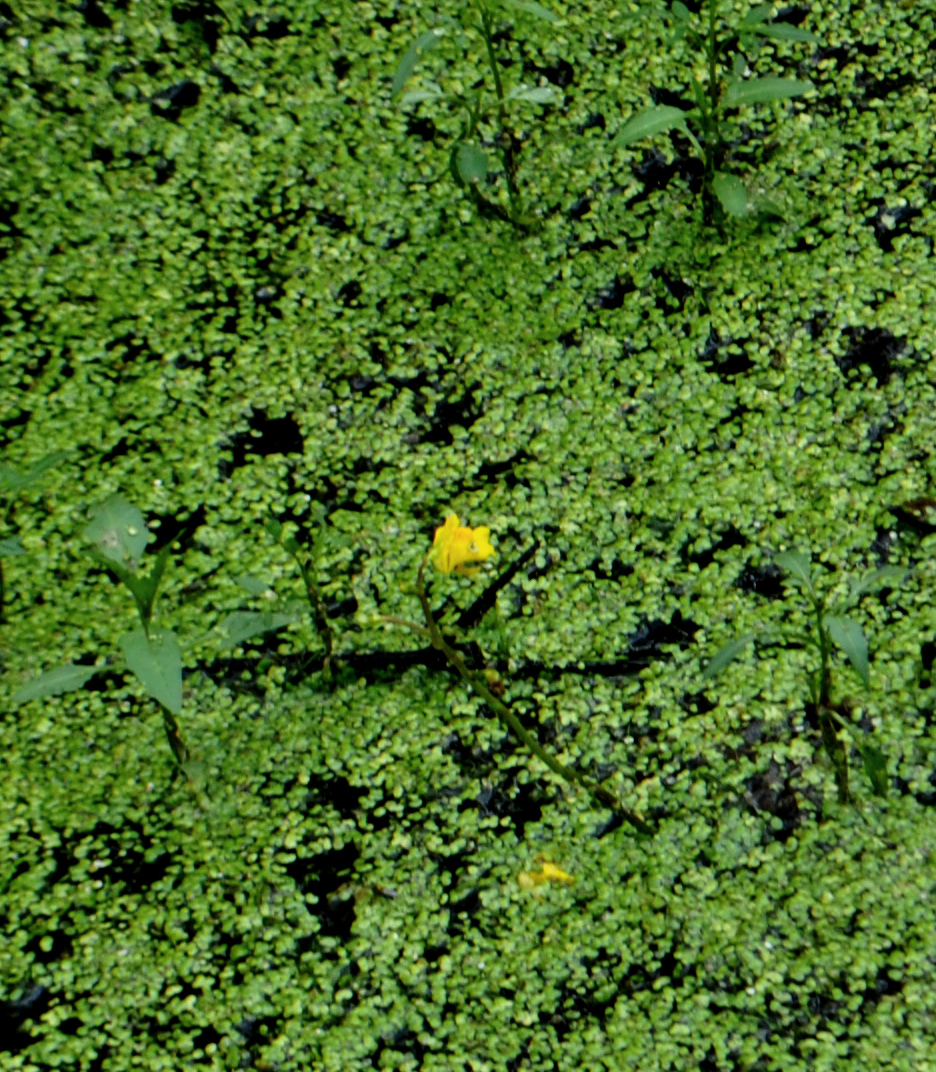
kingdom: Plantae
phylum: Tracheophyta
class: Magnoliopsida
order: Lamiales
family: Lentibulariaceae
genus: Utricularia
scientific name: Utricularia macrorhiza
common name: Common bladderwort
